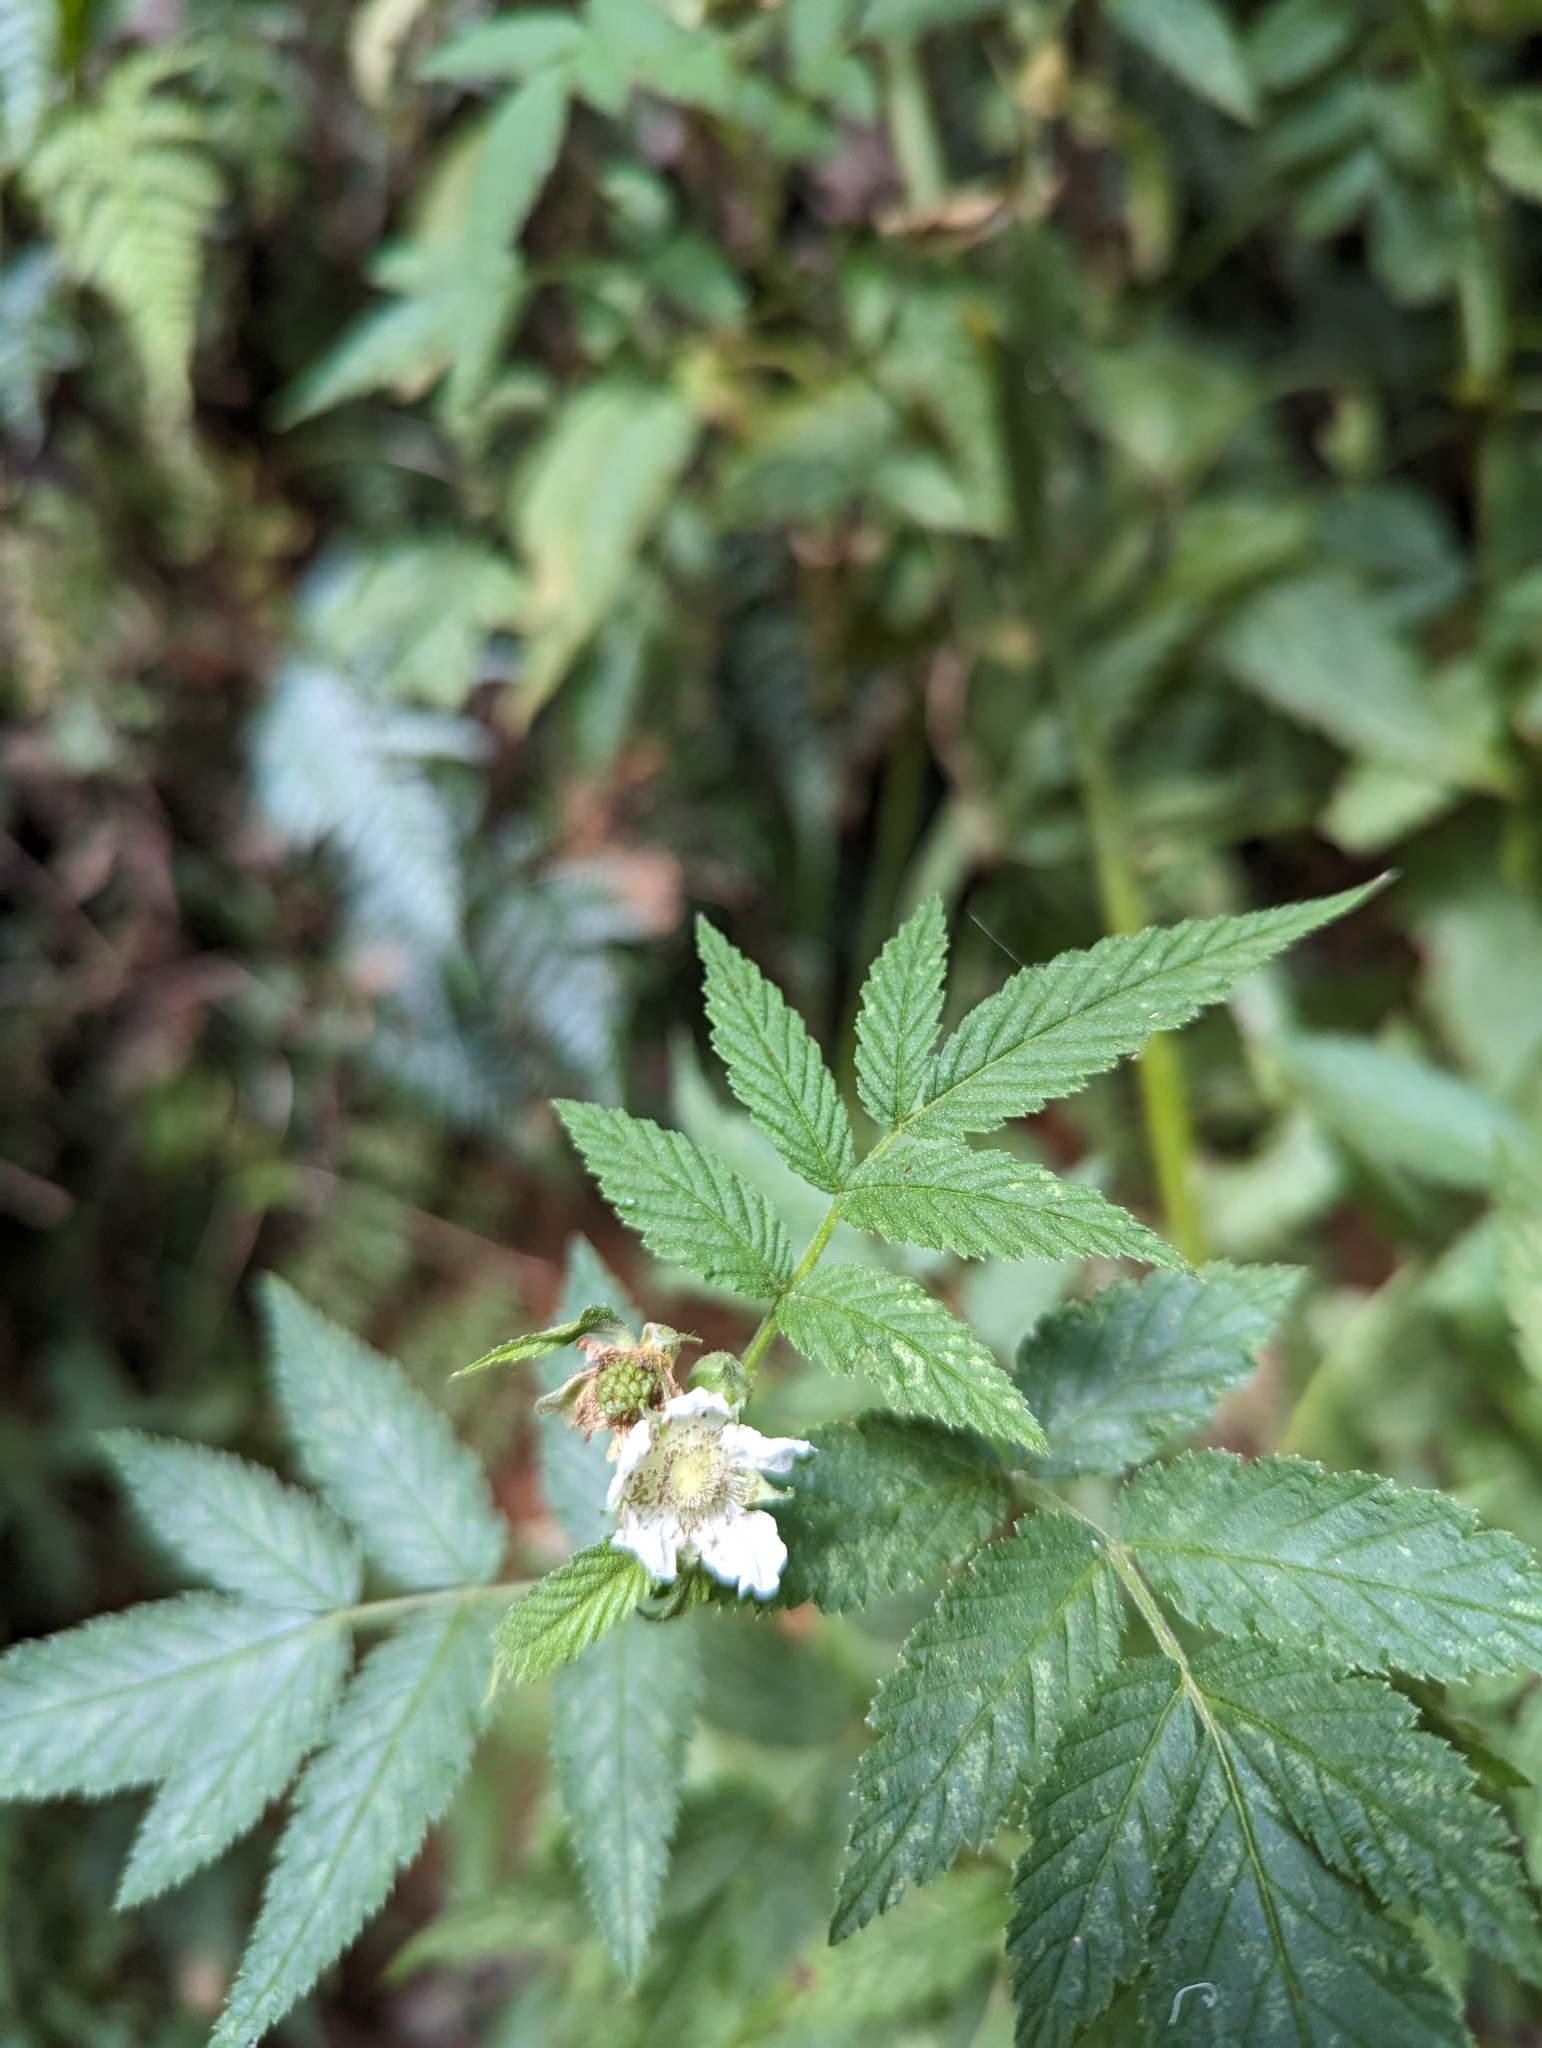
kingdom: Plantae
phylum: Tracheophyta
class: Magnoliopsida
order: Rosales
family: Rosaceae
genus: Rubus
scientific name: Rubus rosifolius
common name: Roseleaf raspberry
